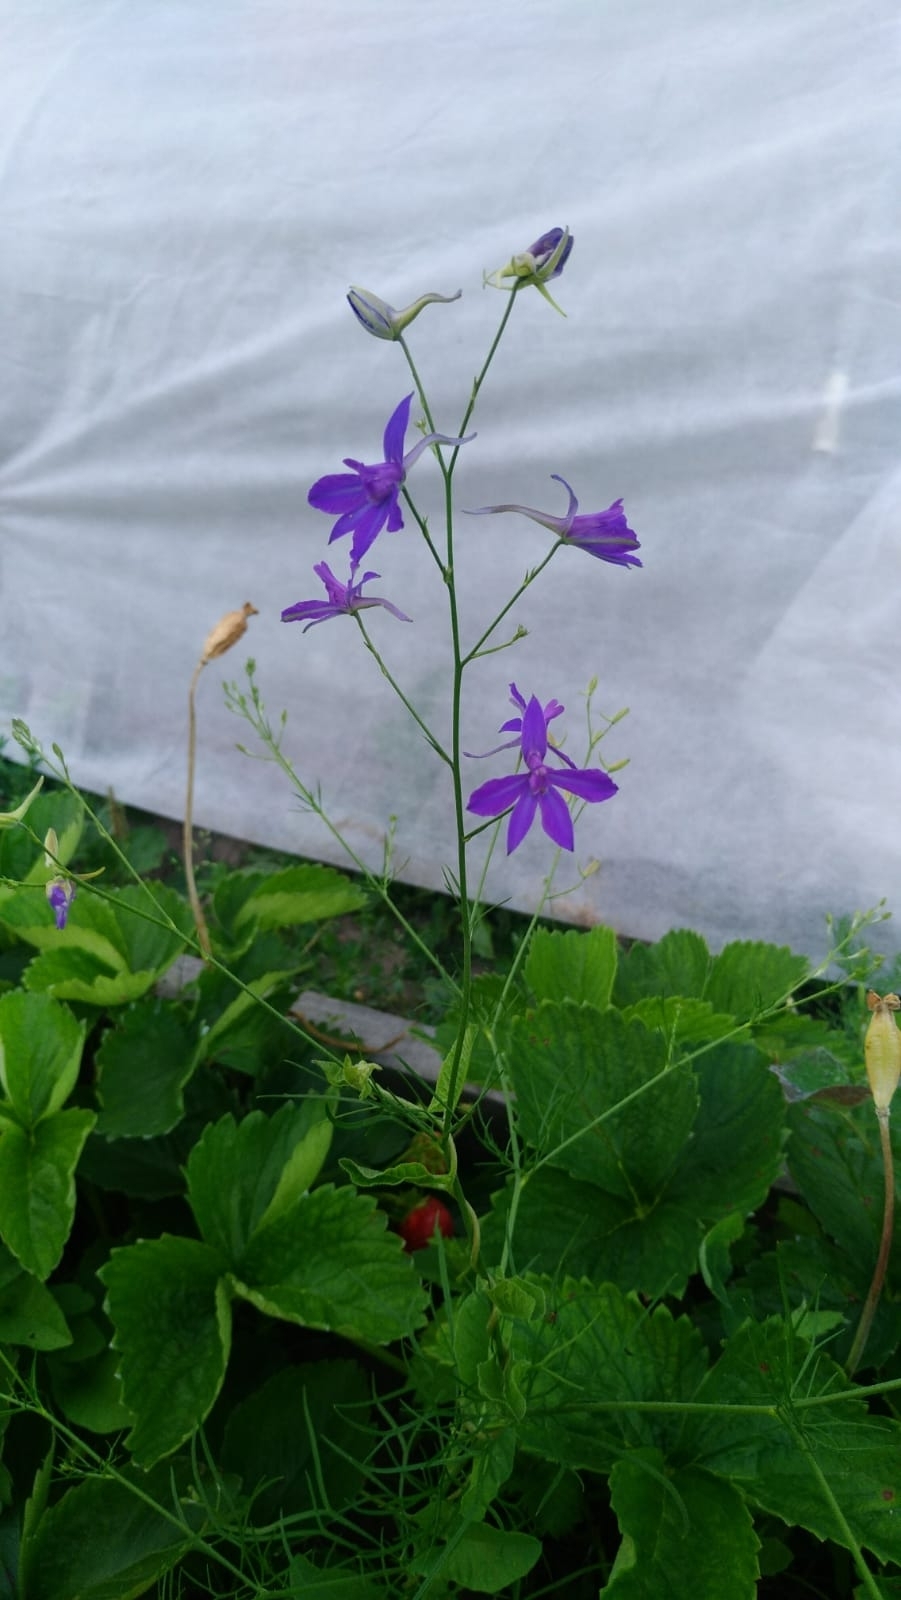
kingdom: Plantae
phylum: Tracheophyta
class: Magnoliopsida
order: Ranunculales
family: Ranunculaceae
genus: Delphinium
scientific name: Delphinium consolida
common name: Branching larkspur
